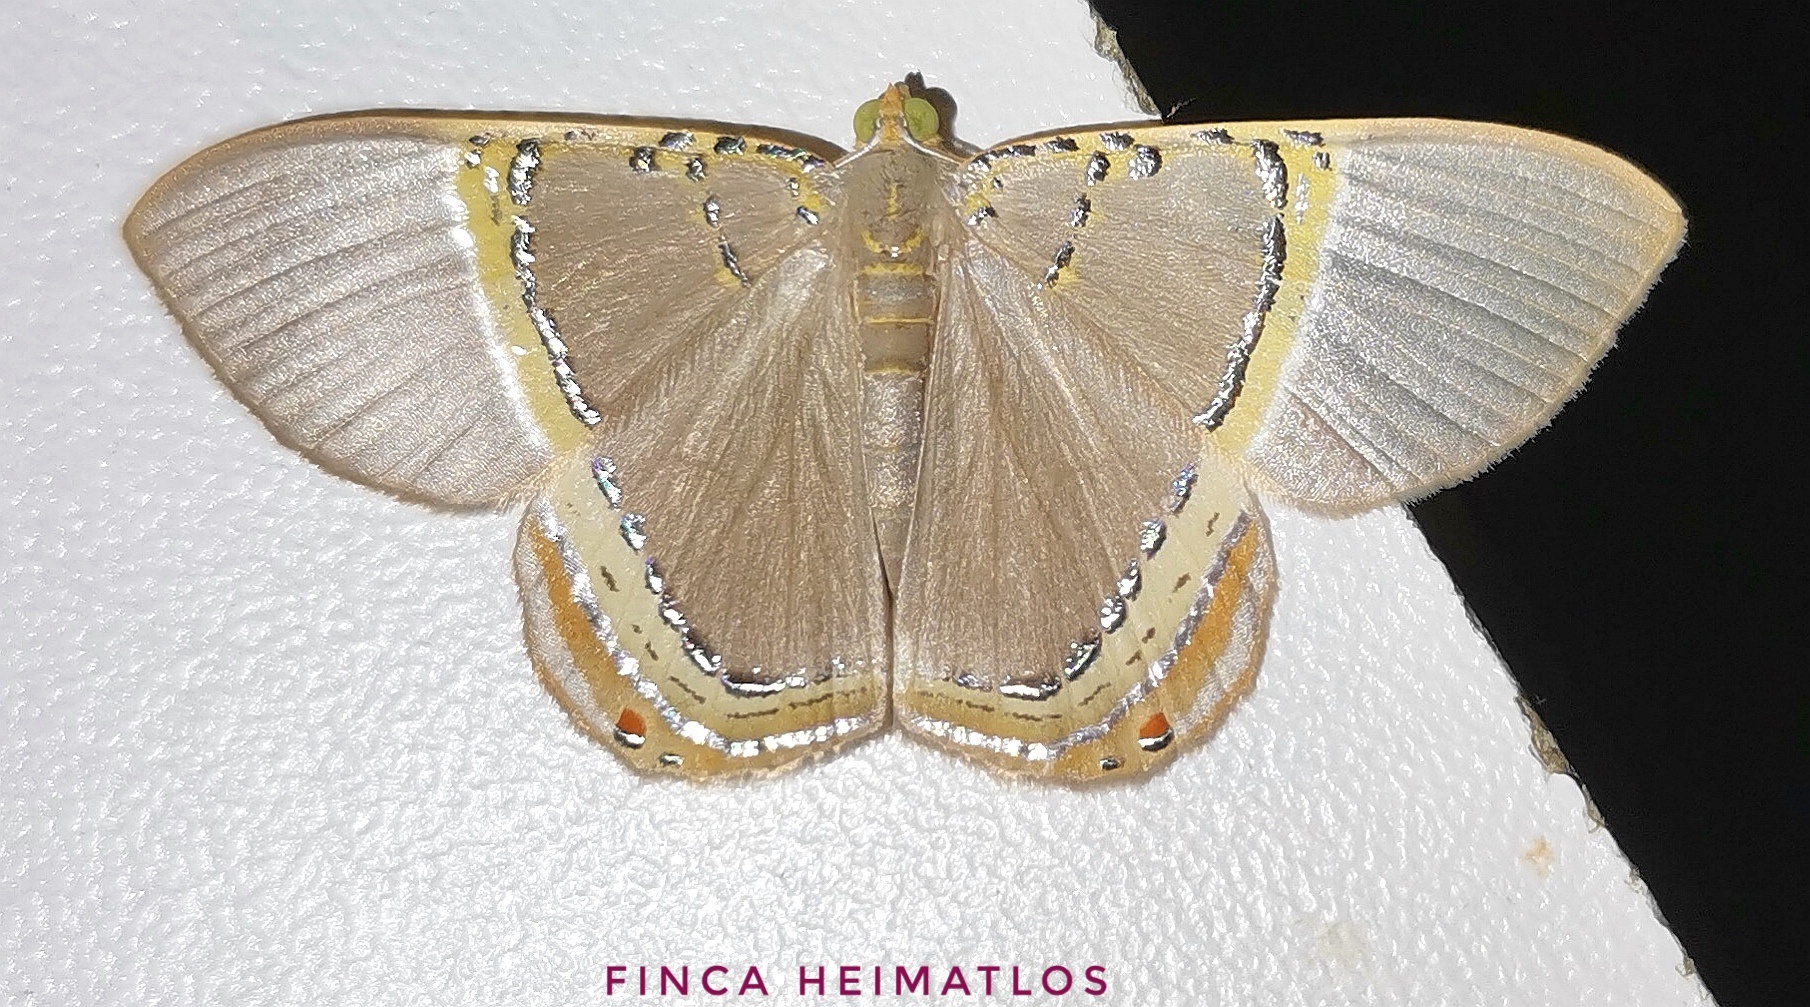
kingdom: Animalia
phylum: Arthropoda
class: Insecta
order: Lepidoptera
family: Geometridae
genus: Phrygionis
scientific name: Phrygionis privignaria
